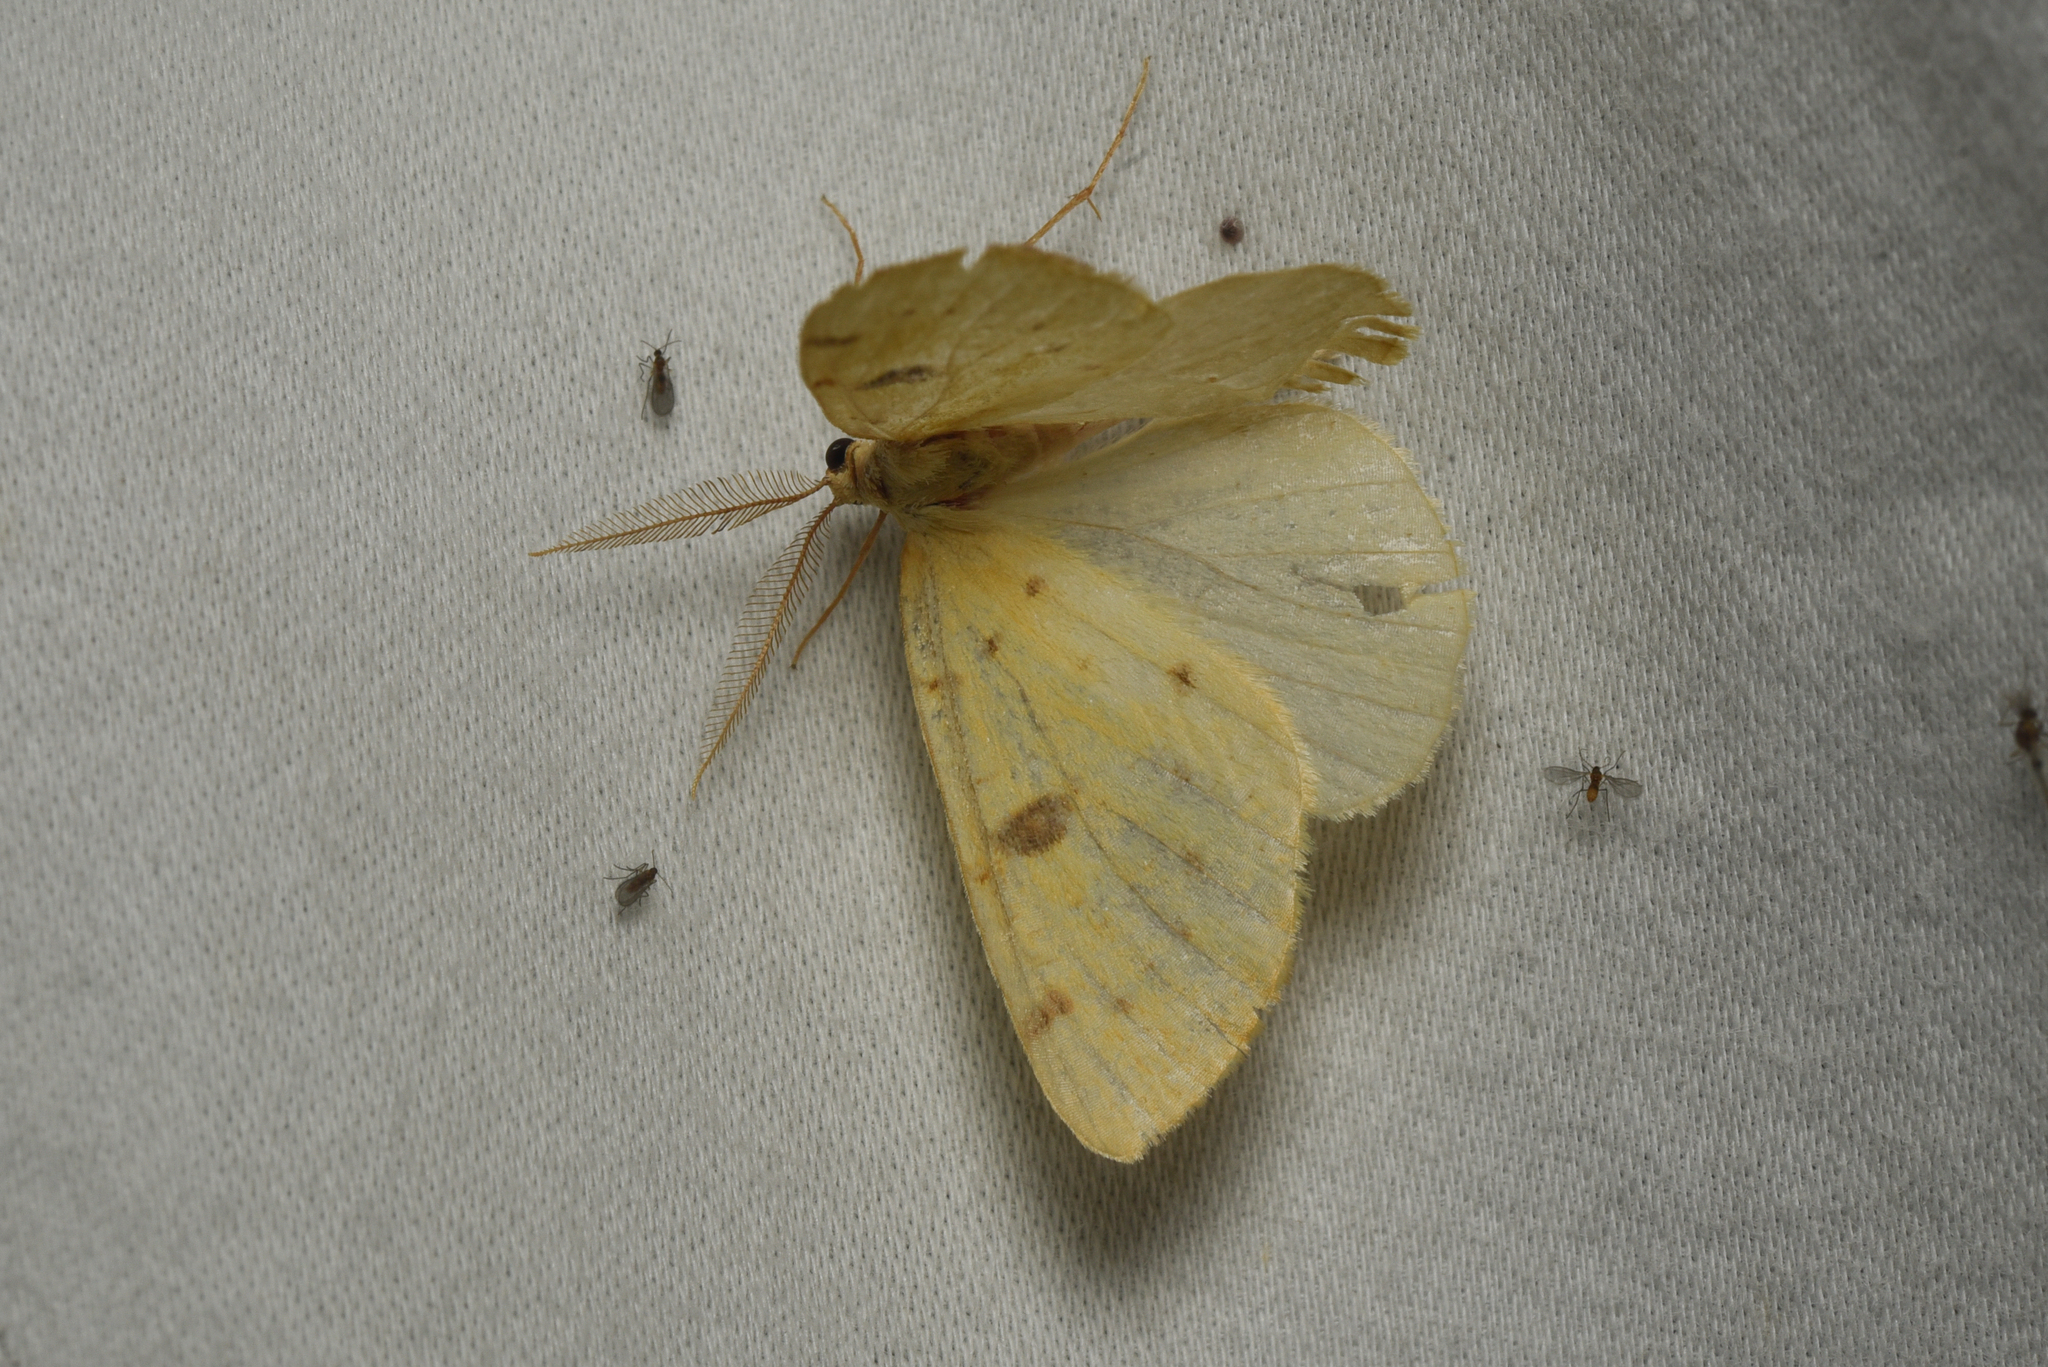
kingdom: Animalia
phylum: Arthropoda
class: Insecta
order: Lepidoptera
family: Geometridae
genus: Hesperumia
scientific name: Hesperumia sulphuraria
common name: Sulphur moth
